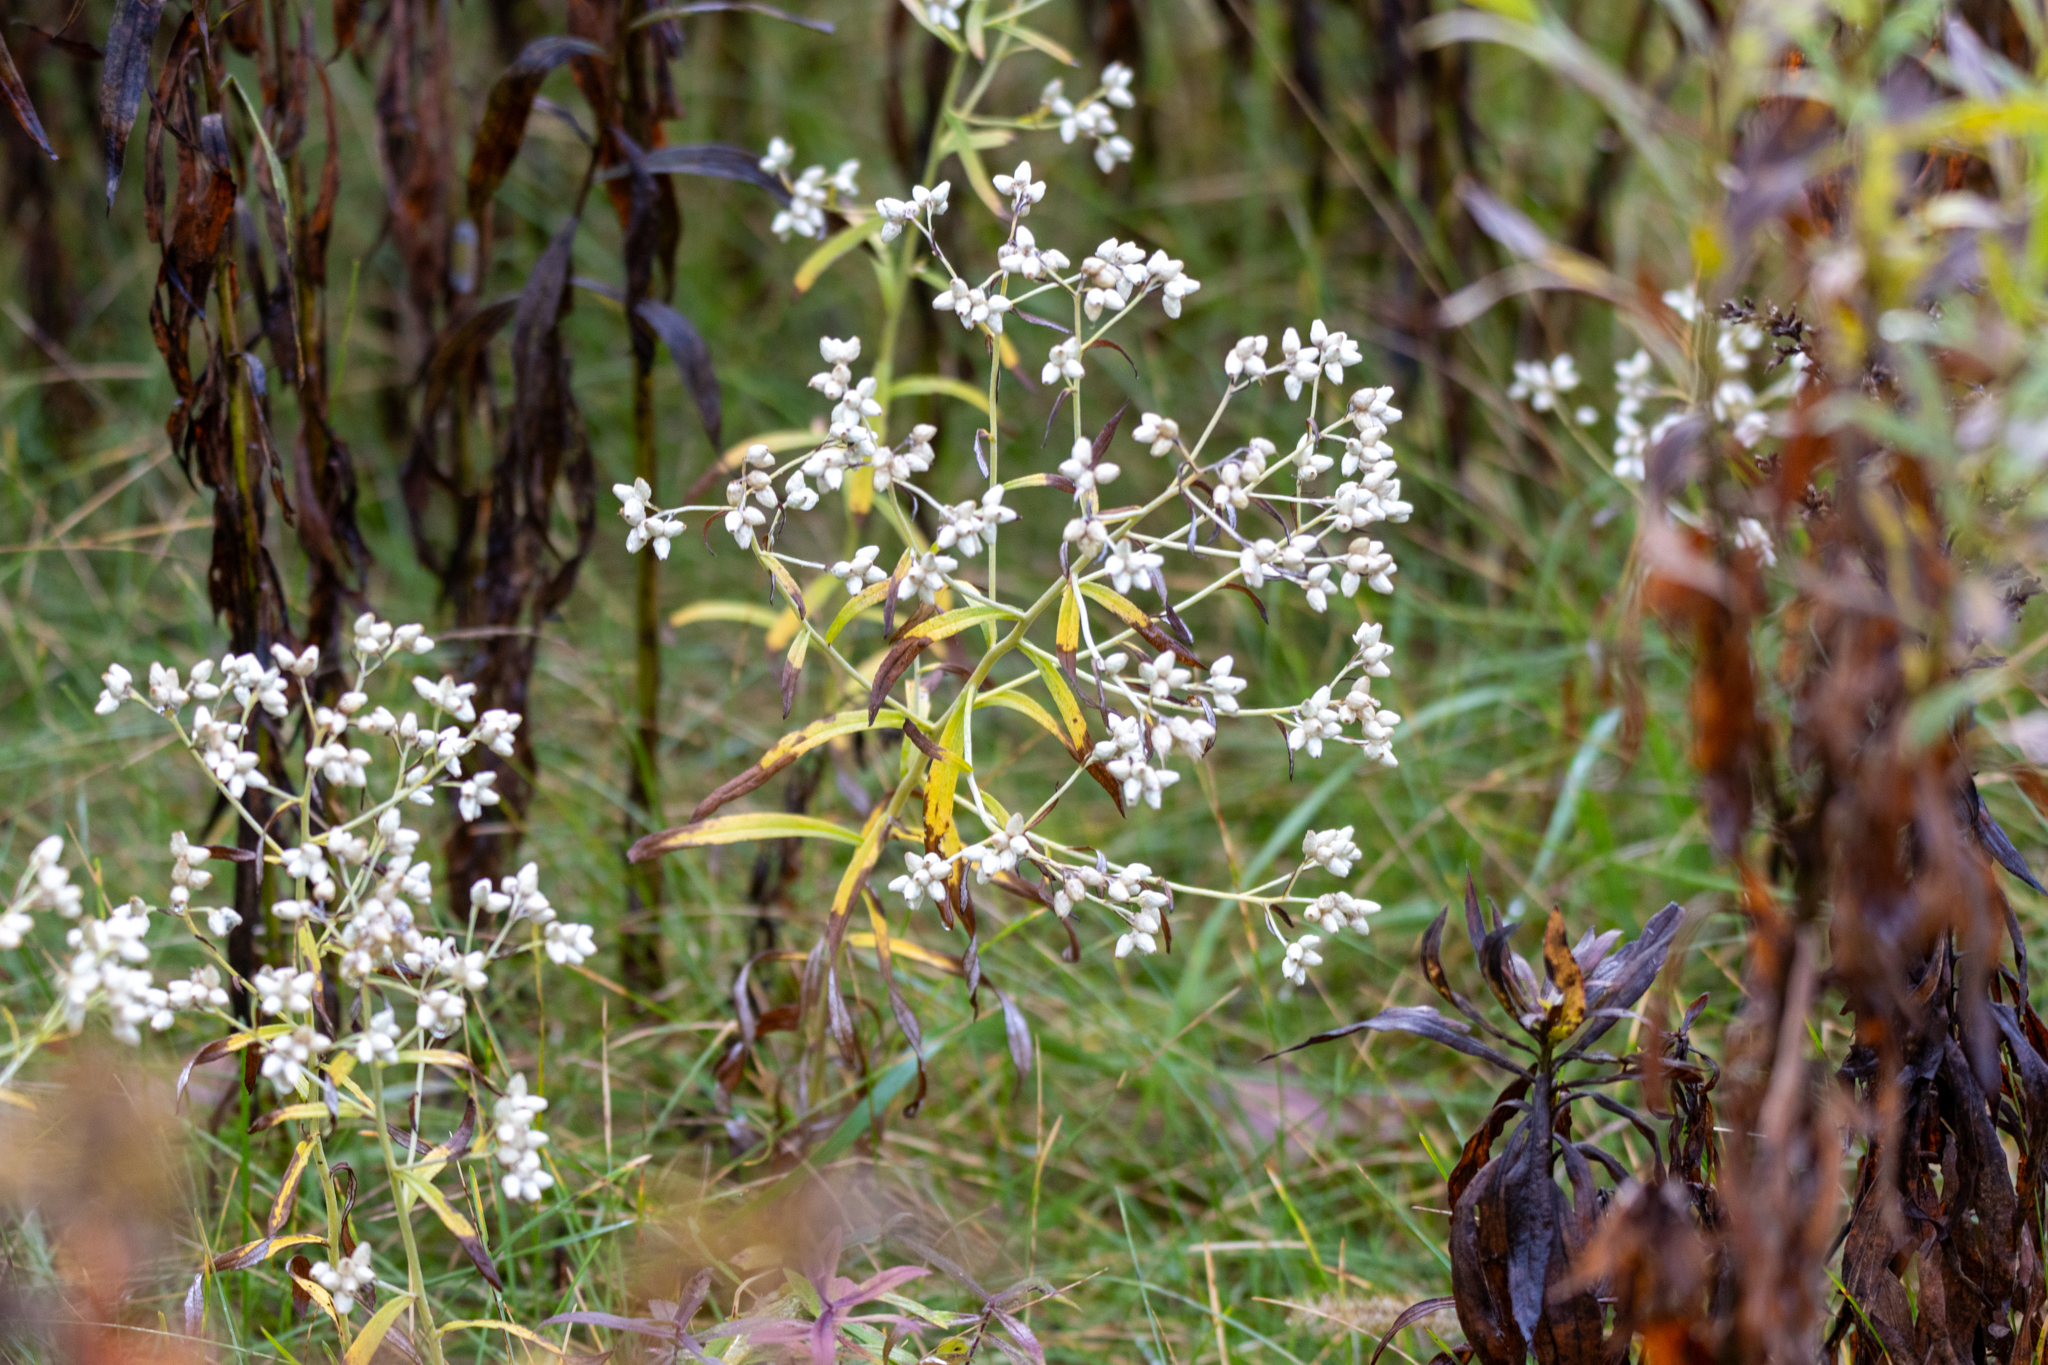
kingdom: Plantae
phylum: Tracheophyta
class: Magnoliopsida
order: Asterales
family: Asteraceae
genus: Pseudognaphalium
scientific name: Pseudognaphalium obtusifolium
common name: Eastern rabbit-tobacco
